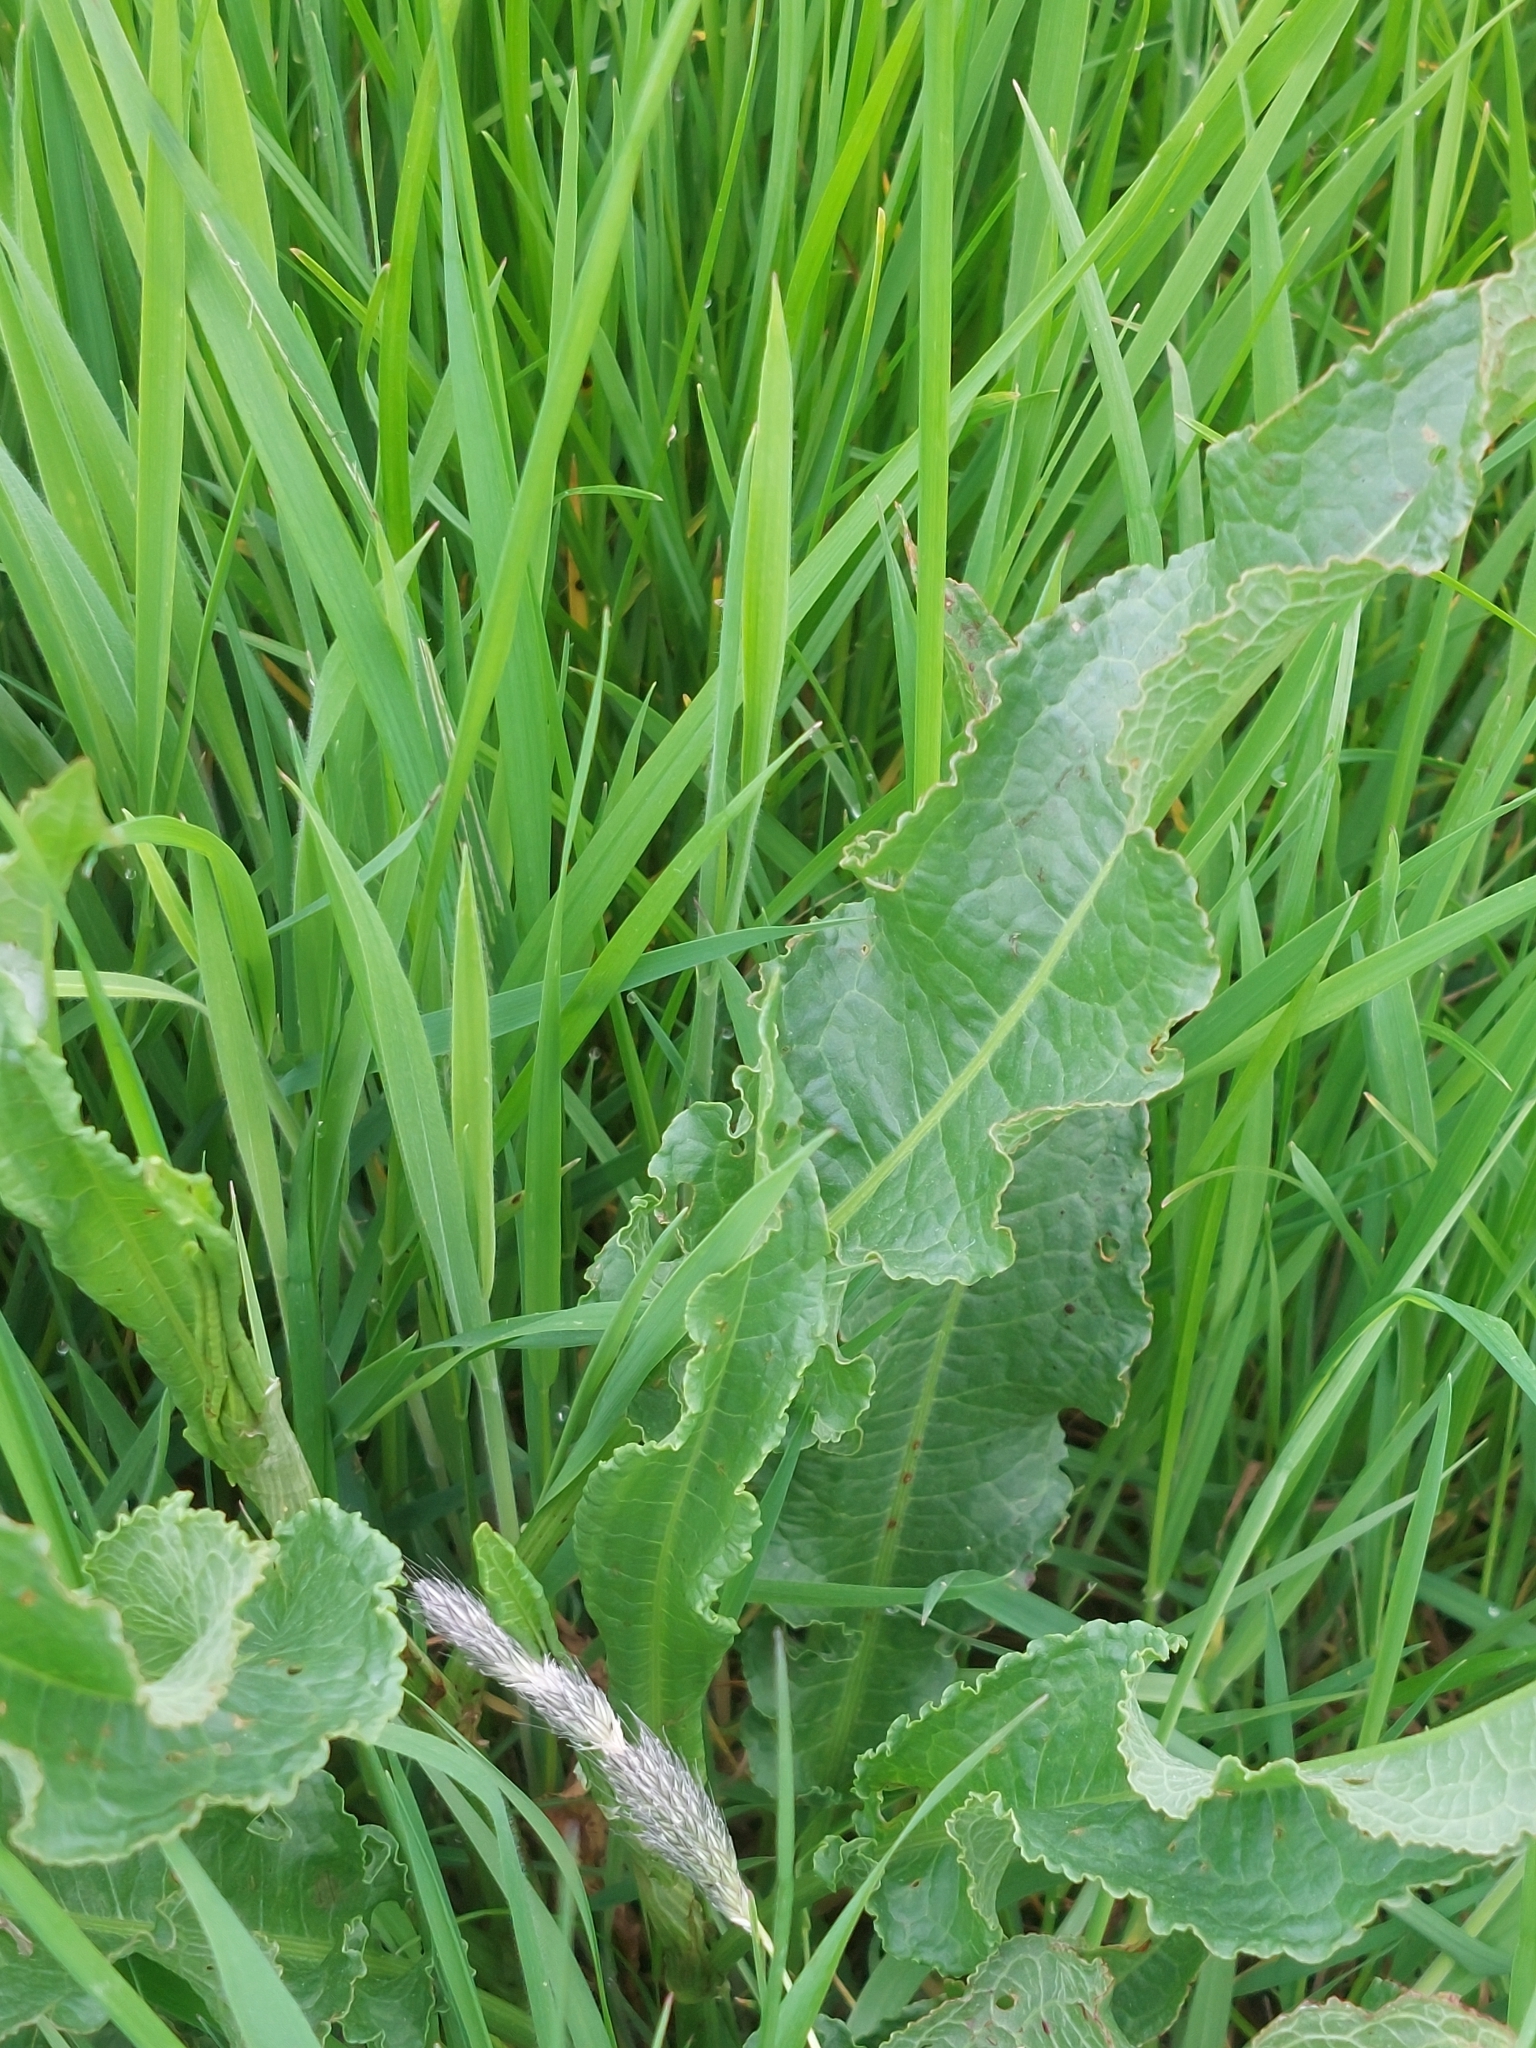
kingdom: Plantae
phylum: Tracheophyta
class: Magnoliopsida
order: Caryophyllales
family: Polygonaceae
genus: Rumex
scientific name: Rumex crispus
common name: Curled dock
